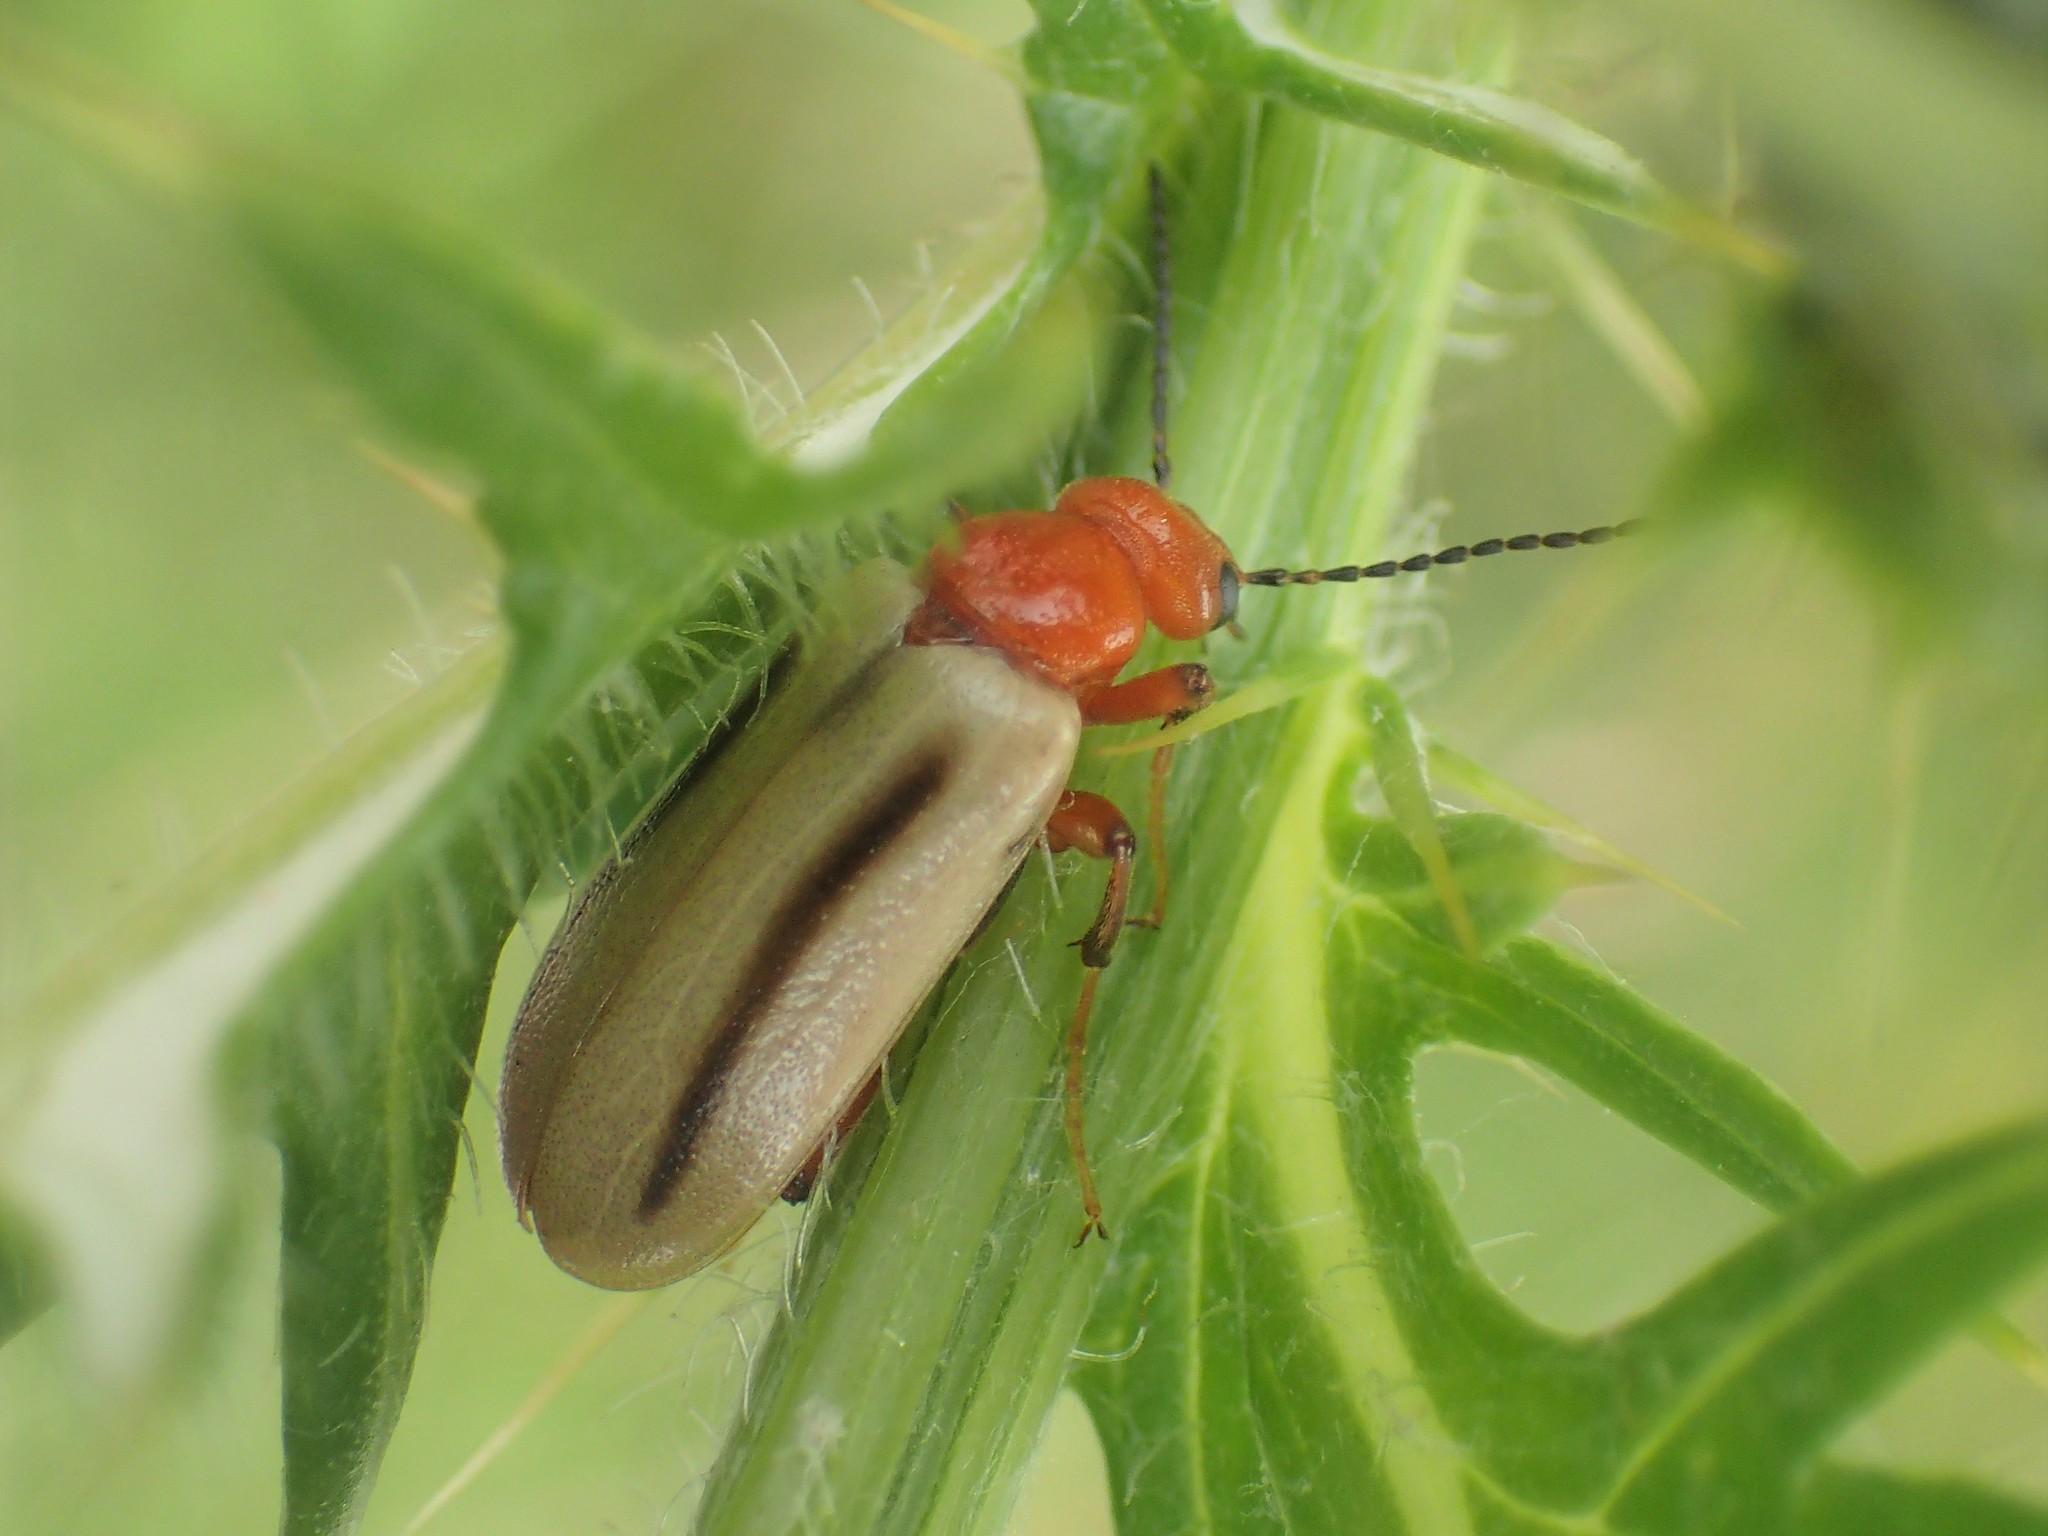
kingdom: Animalia
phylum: Arthropoda
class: Insecta
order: Coleoptera
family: Meloidae
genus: Zonitis
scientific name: Zonitis bilineata
